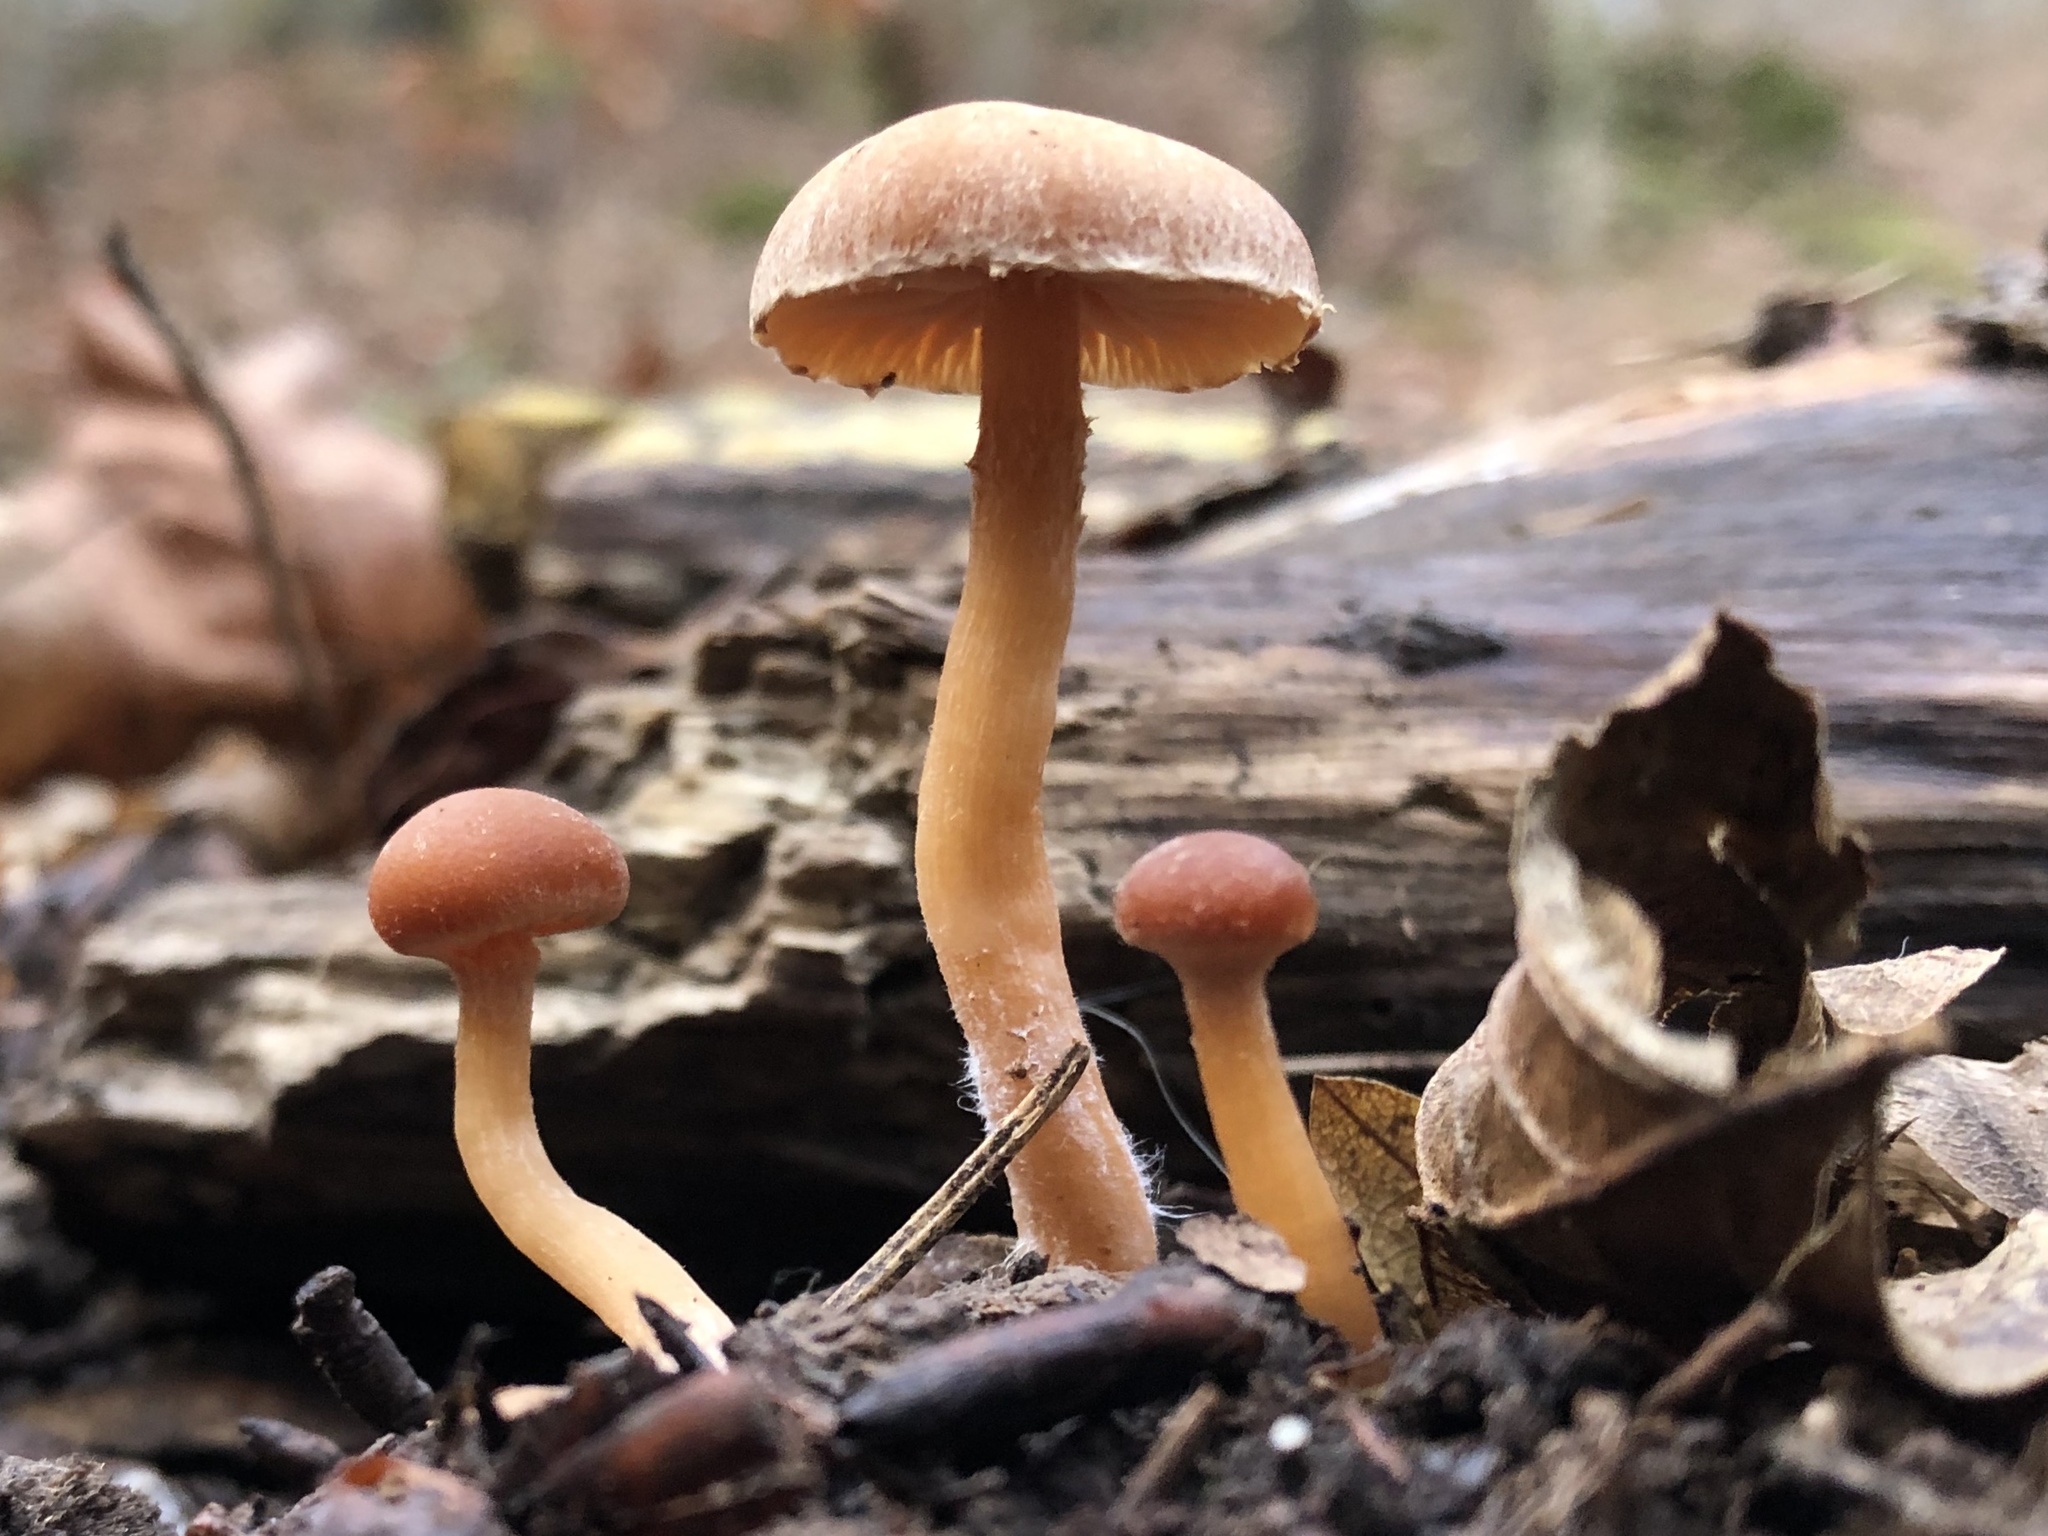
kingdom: Fungi
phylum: Basidiomycota
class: Agaricomycetes
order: Agaricales
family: Tubariaceae
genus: Tubaria
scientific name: Tubaria furfuracea
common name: Scurfy twiglet
